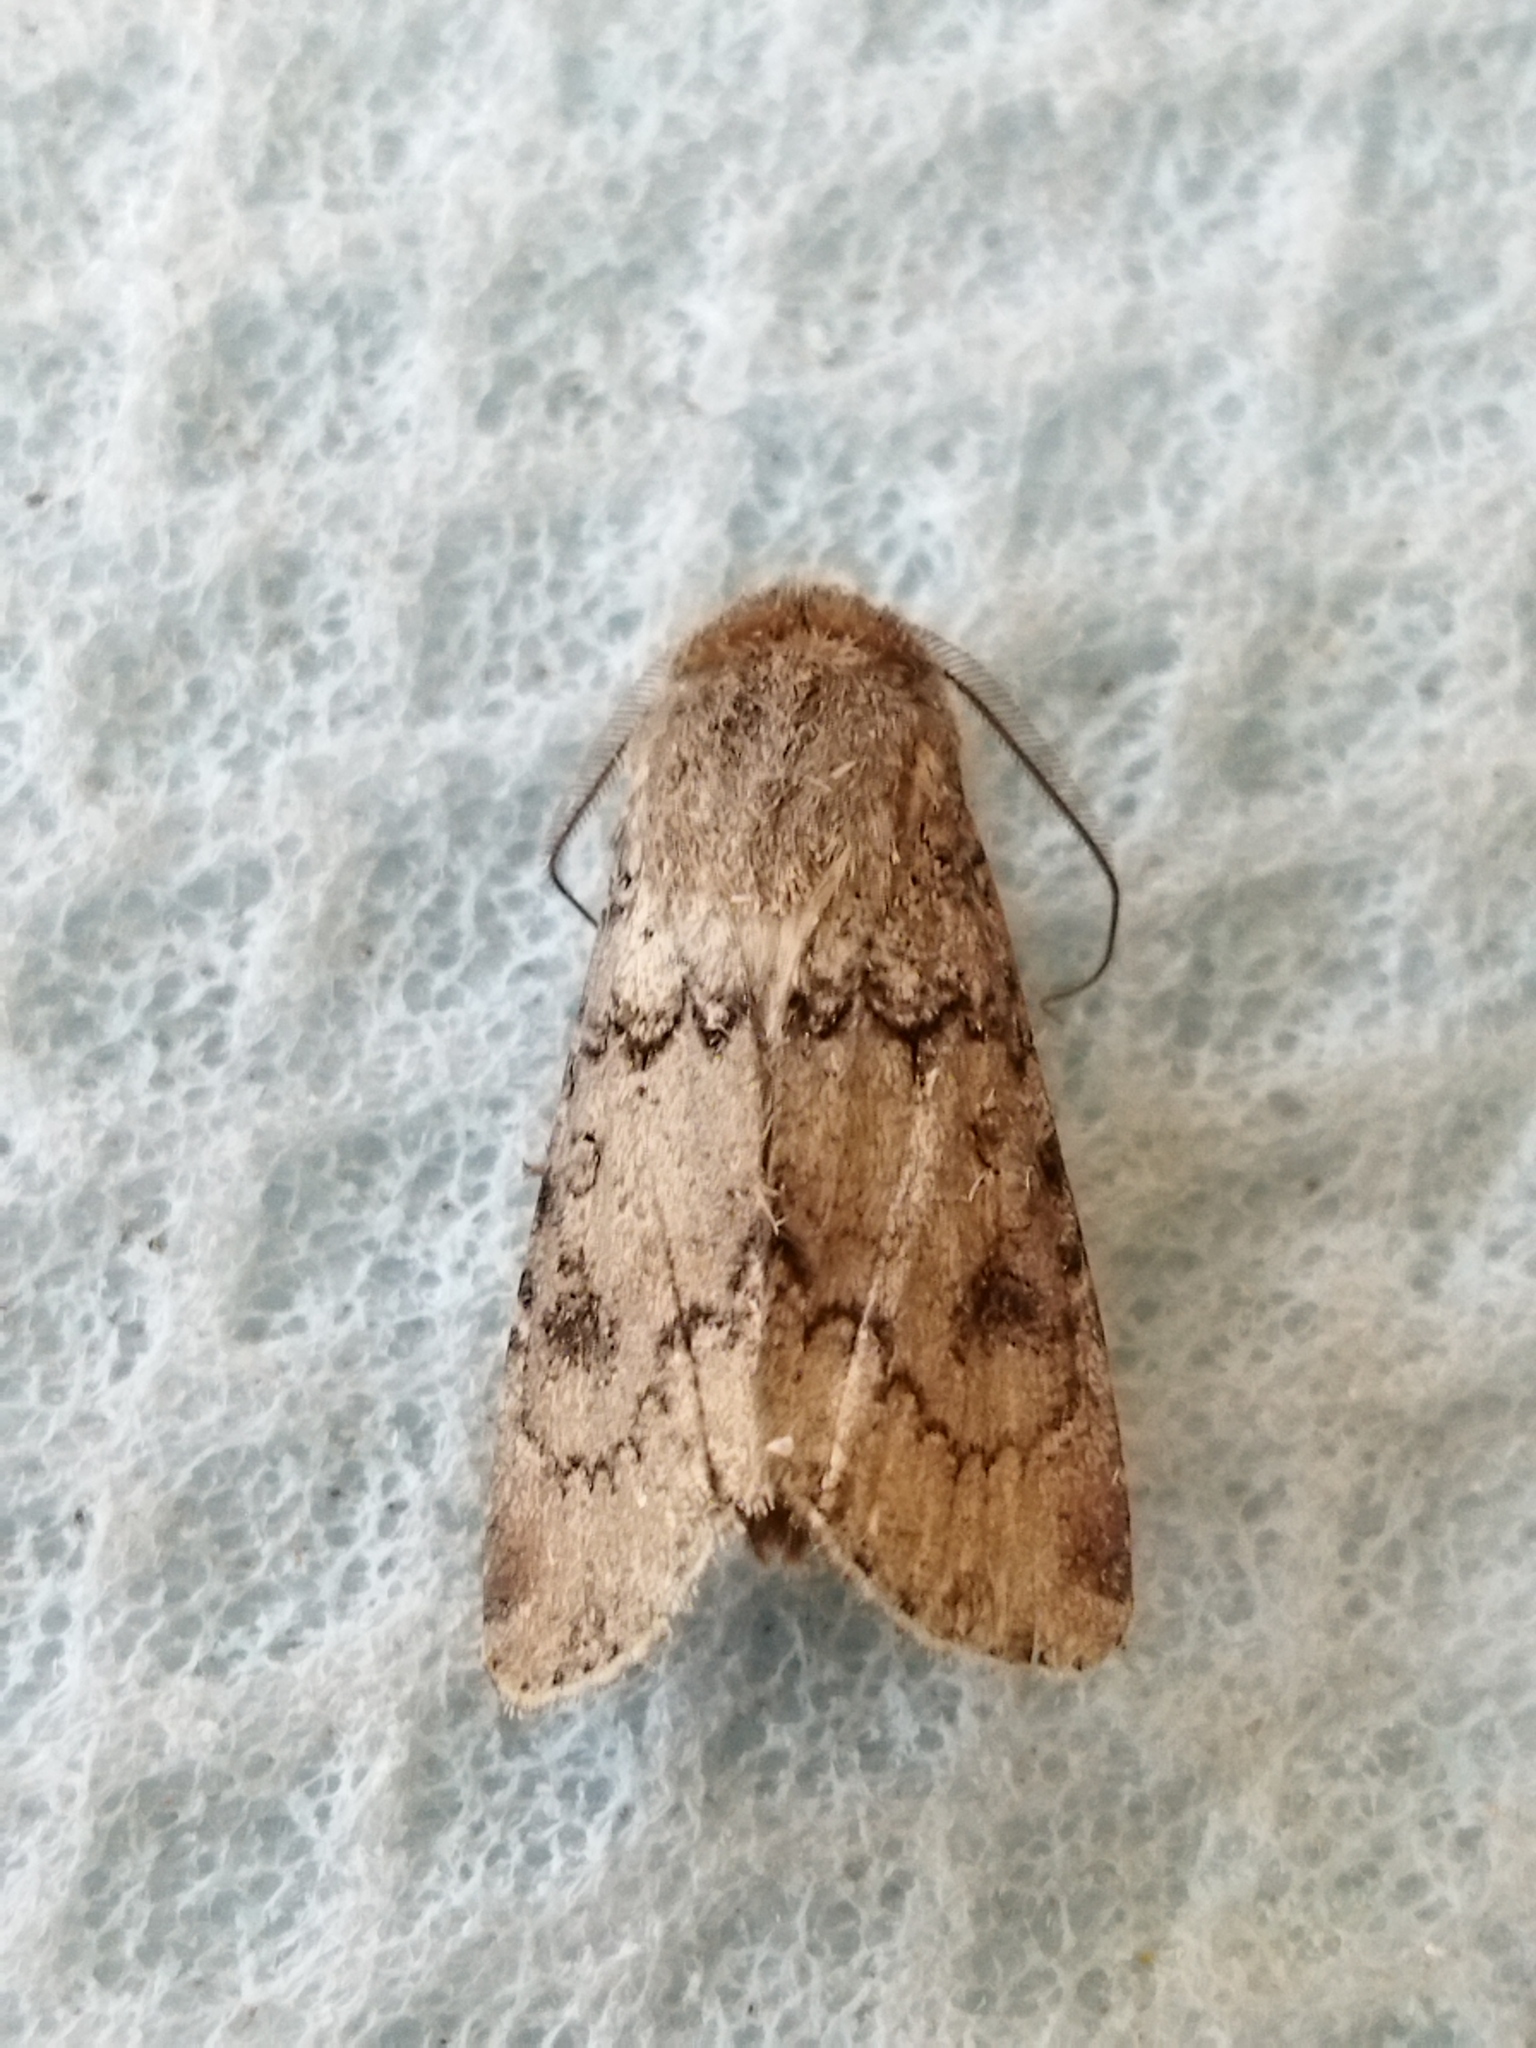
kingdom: Animalia
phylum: Arthropoda
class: Insecta
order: Lepidoptera
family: Noctuidae
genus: Agrotis
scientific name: Agrotis segetum
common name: Turnip moth
